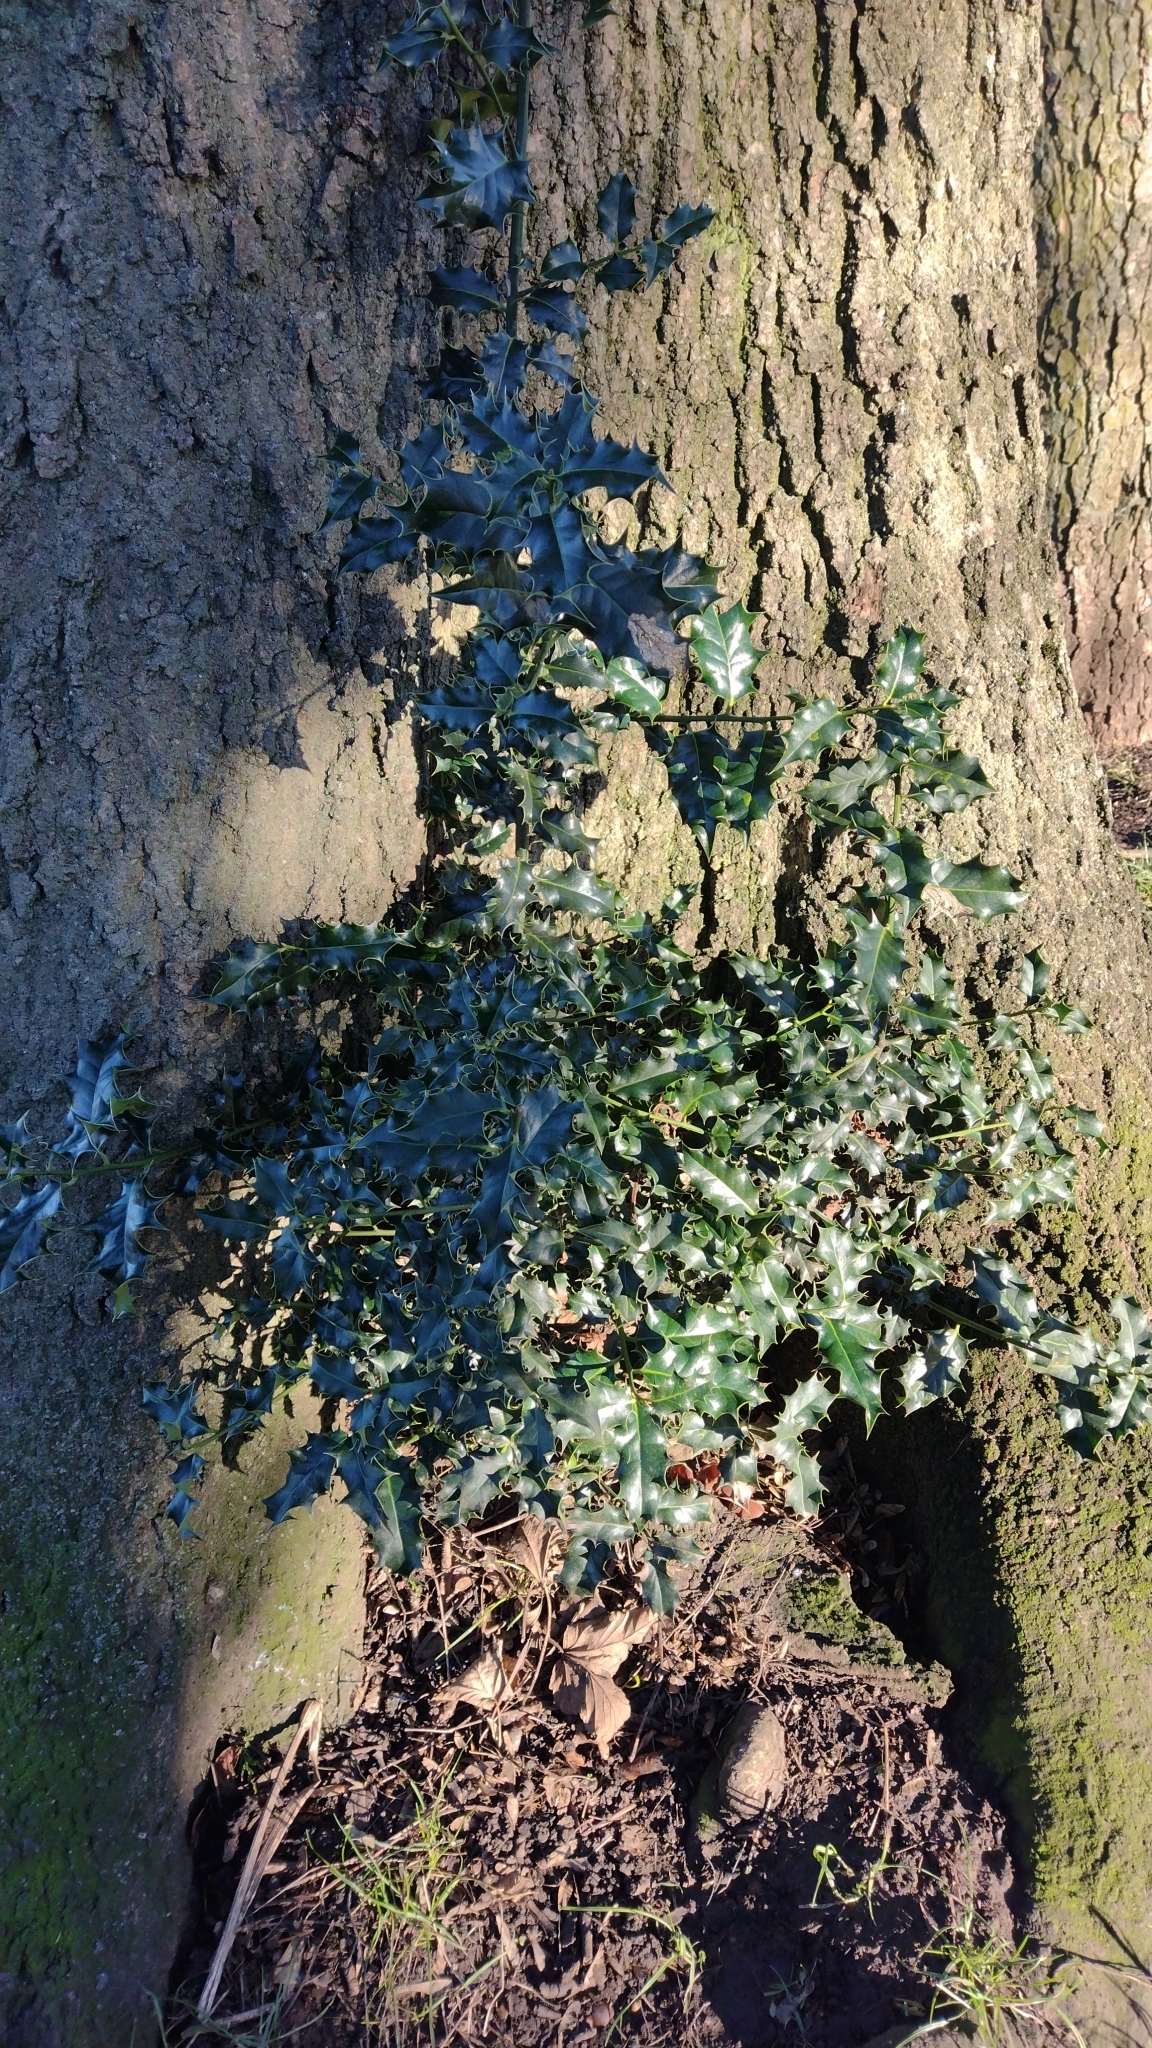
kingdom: Plantae
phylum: Tracheophyta
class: Magnoliopsida
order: Aquifoliales
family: Aquifoliaceae
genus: Ilex
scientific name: Ilex aquifolium
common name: English holly
